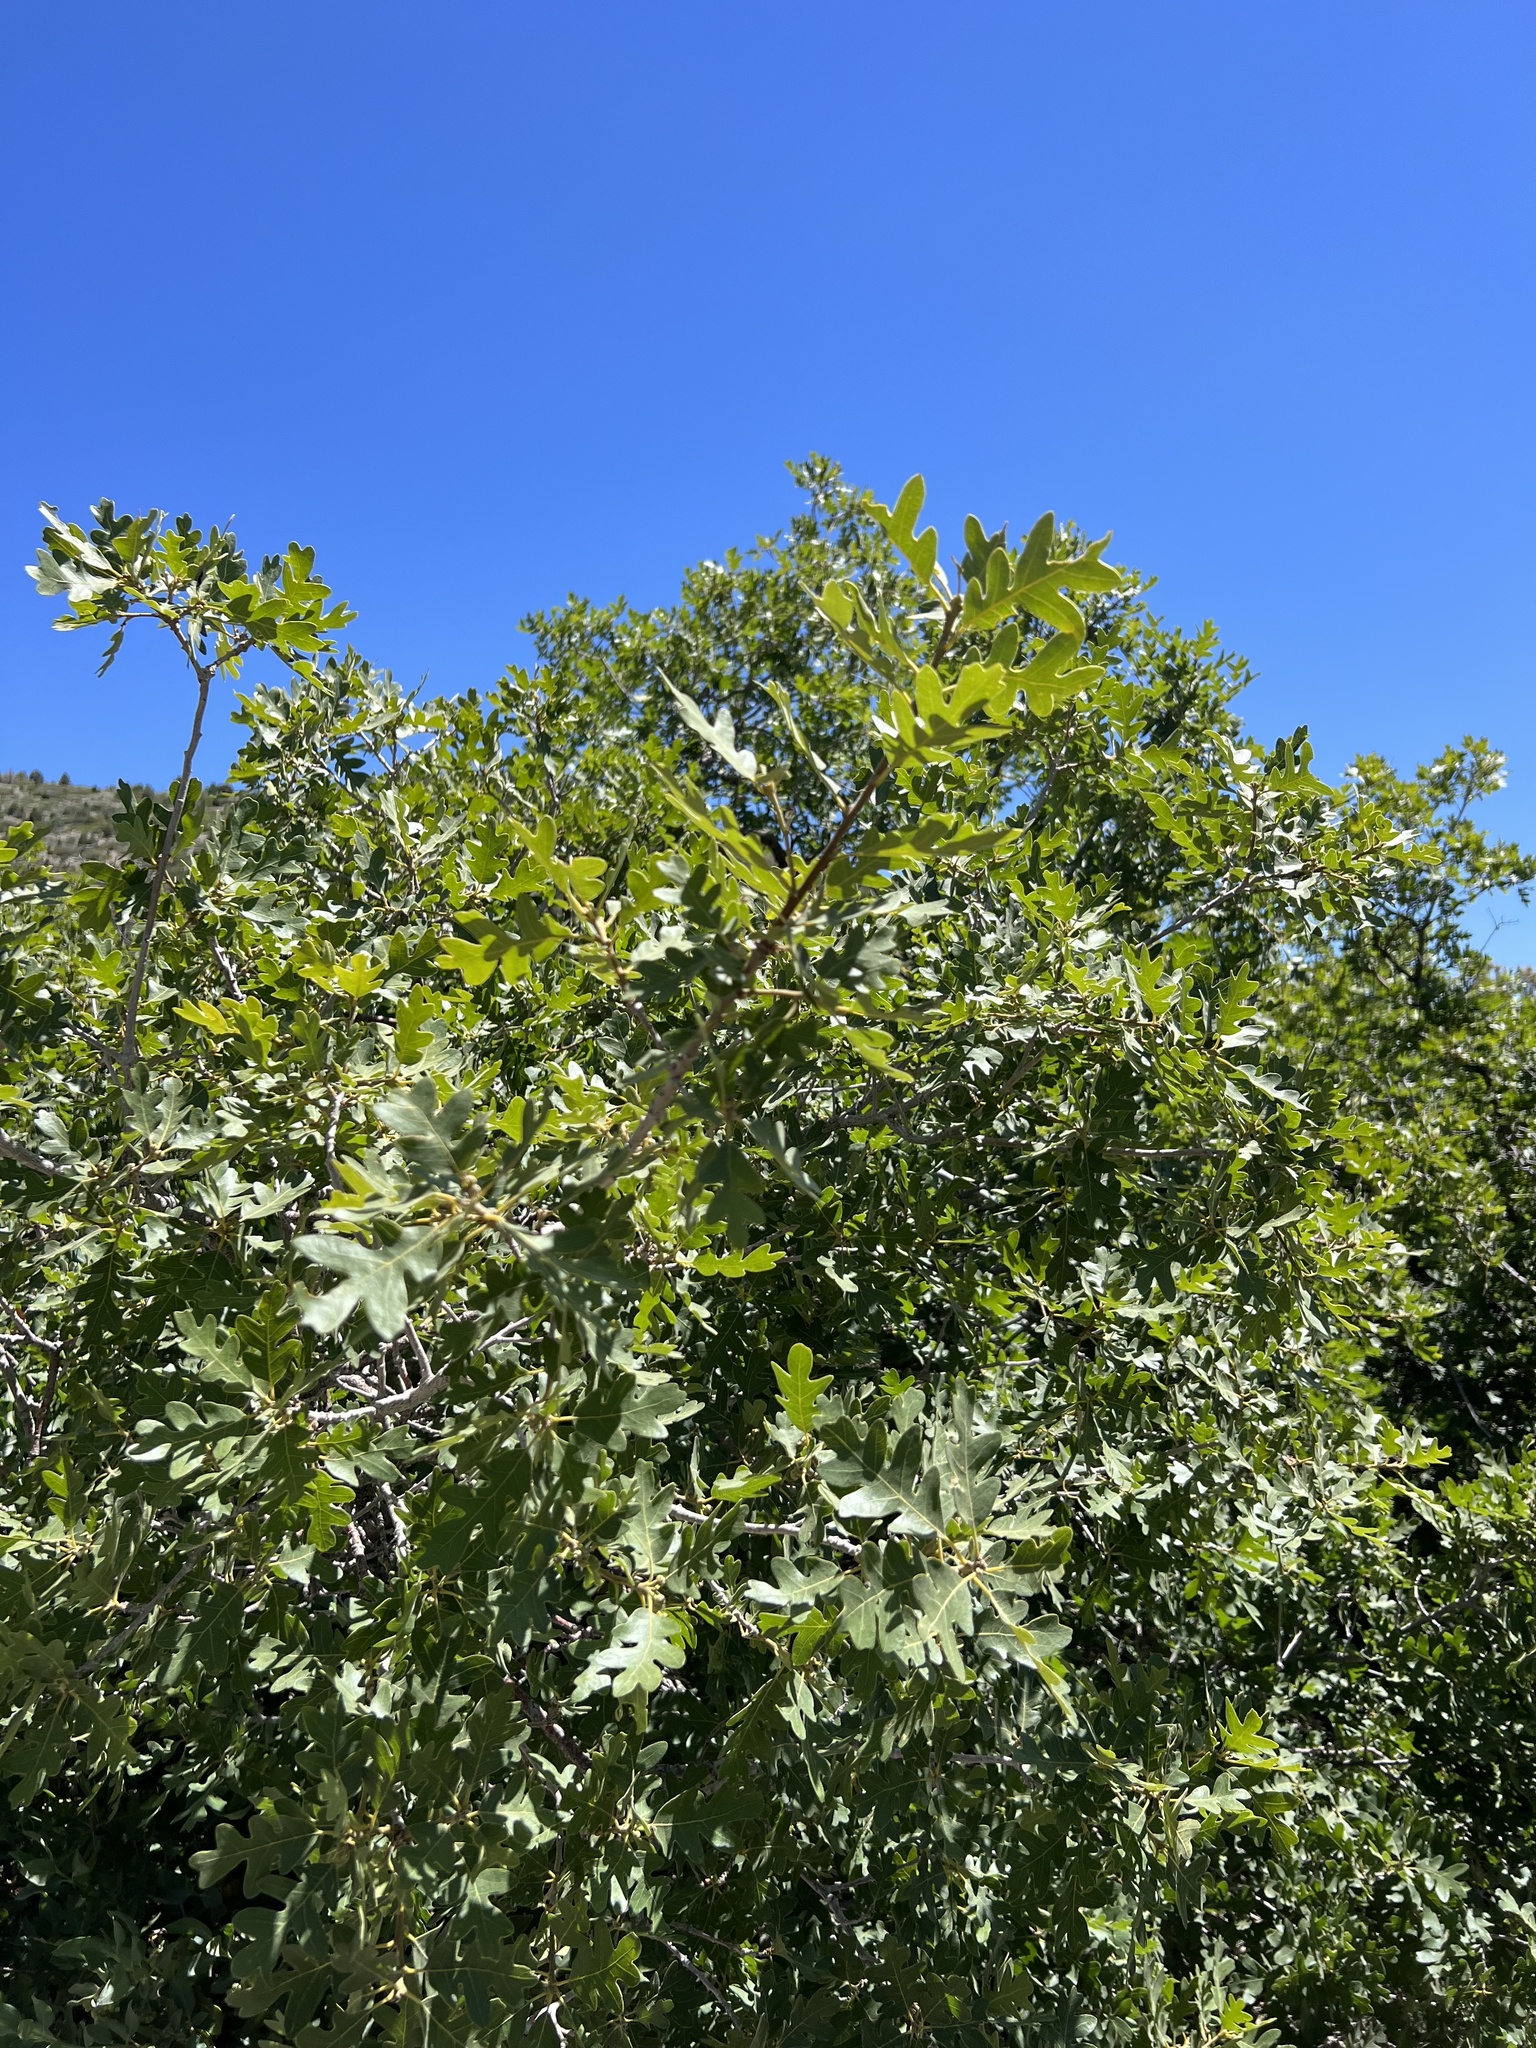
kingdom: Plantae
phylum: Tracheophyta
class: Magnoliopsida
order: Fagales
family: Fagaceae
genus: Quercus
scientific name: Quercus gambelii
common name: Gambel oak
